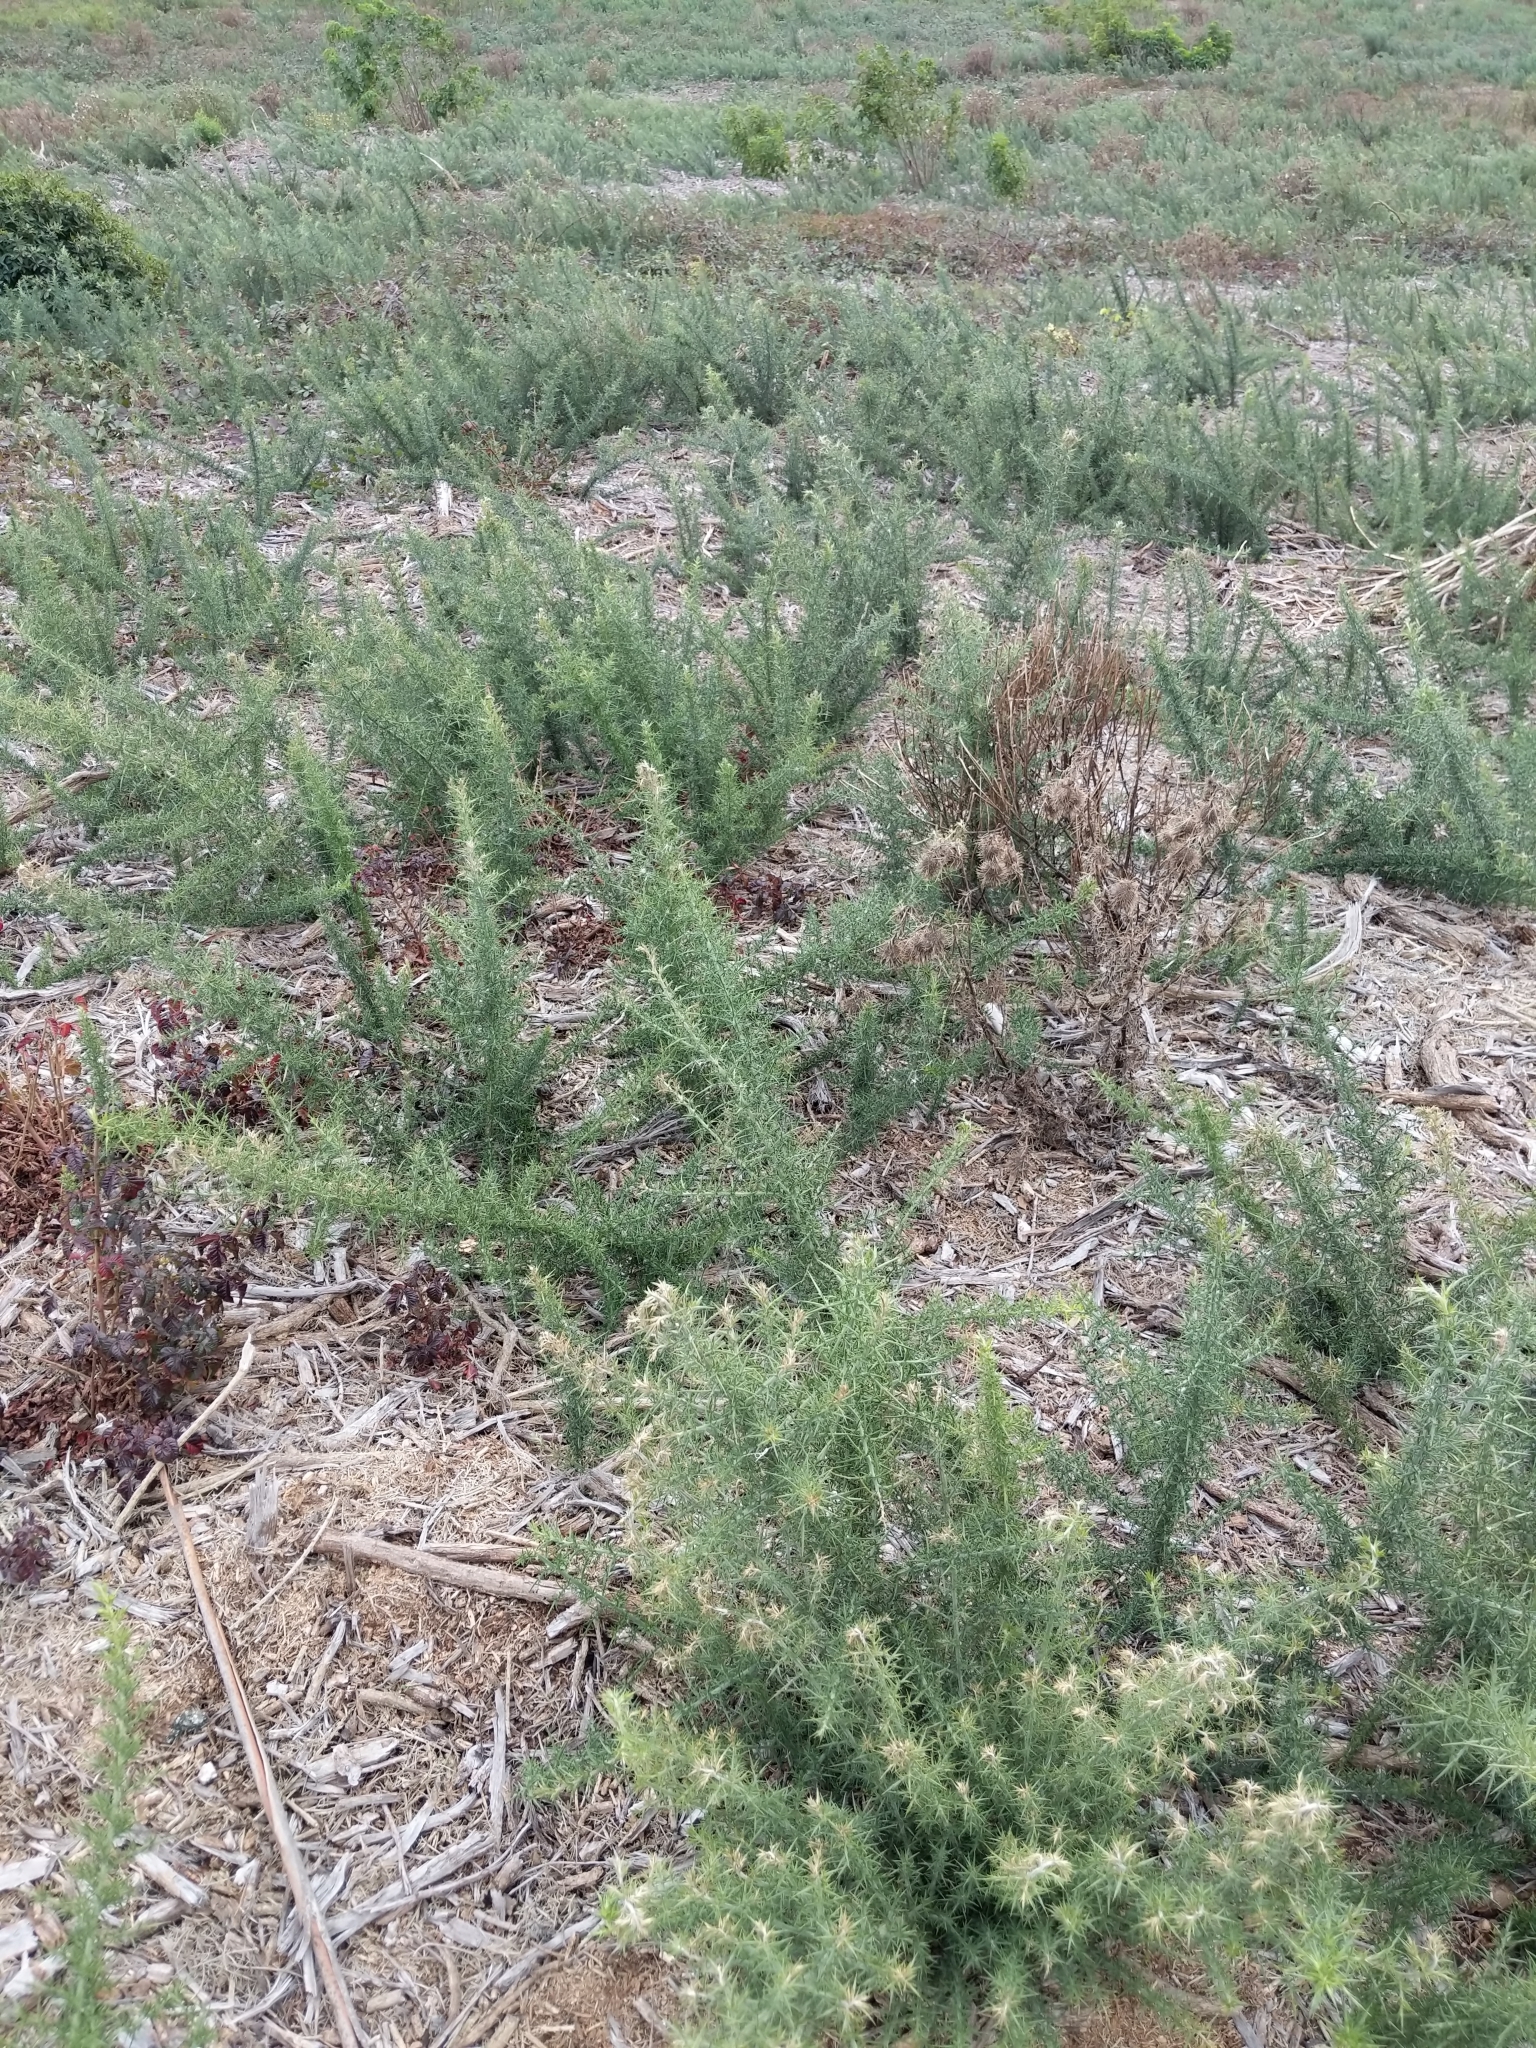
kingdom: Plantae
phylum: Tracheophyta
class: Magnoliopsida
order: Fabales
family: Fabaceae
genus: Ulex
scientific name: Ulex europaeus
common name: Common gorse
